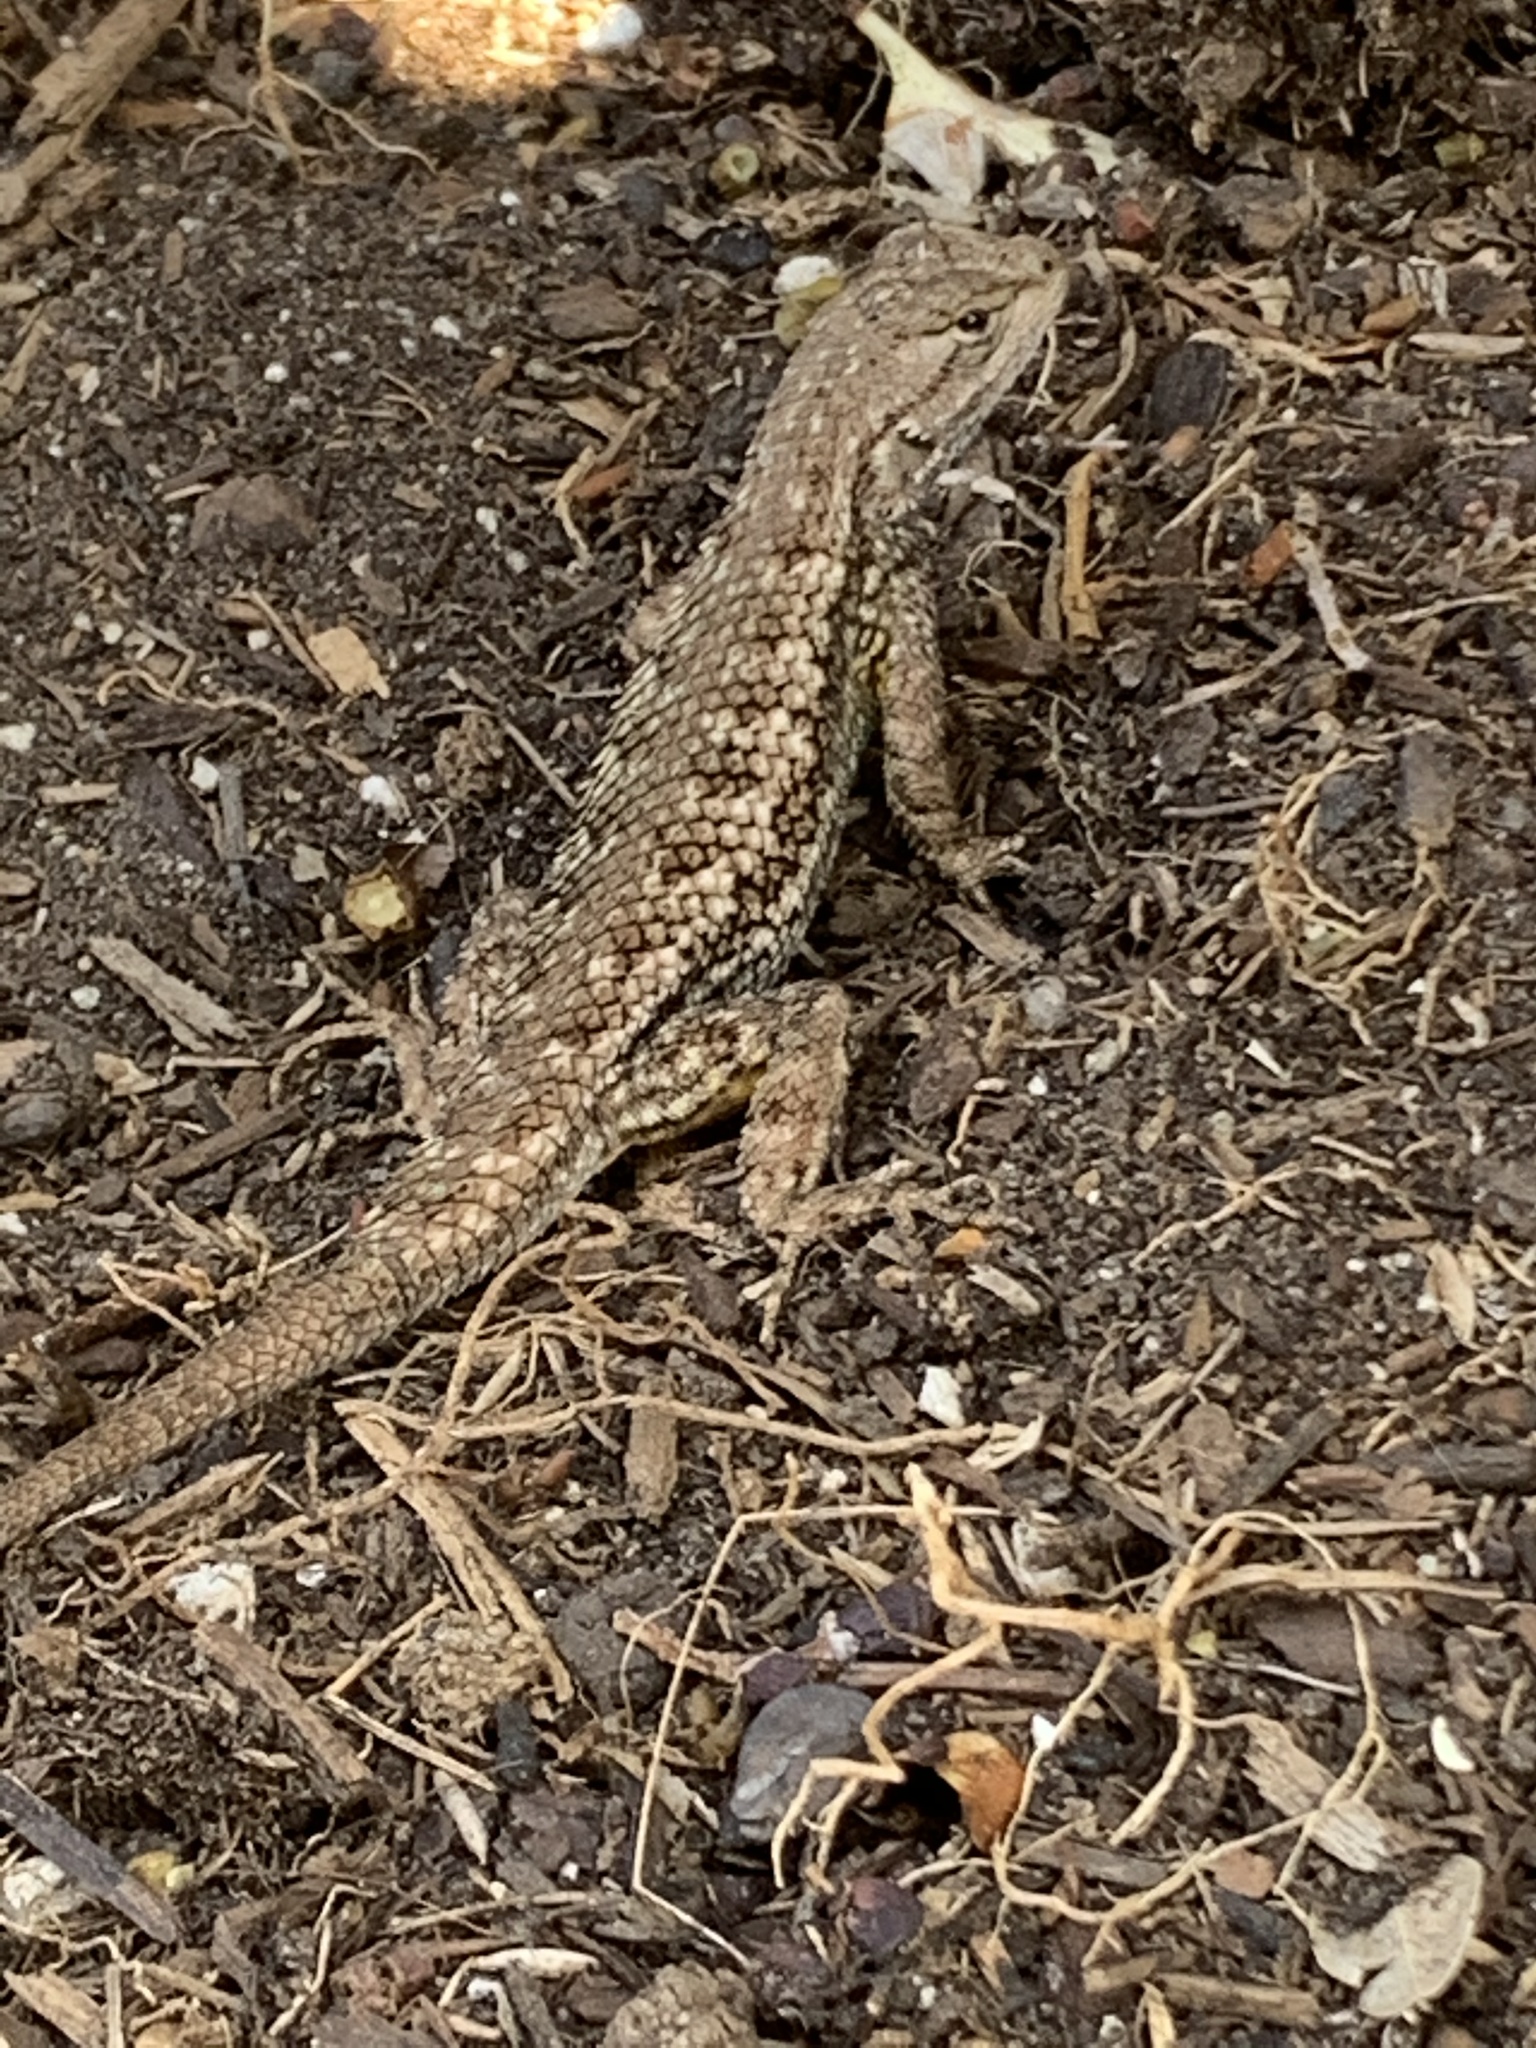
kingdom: Animalia
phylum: Chordata
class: Squamata
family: Phrynosomatidae
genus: Sceloporus
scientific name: Sceloporus occidentalis
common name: Western fence lizard
